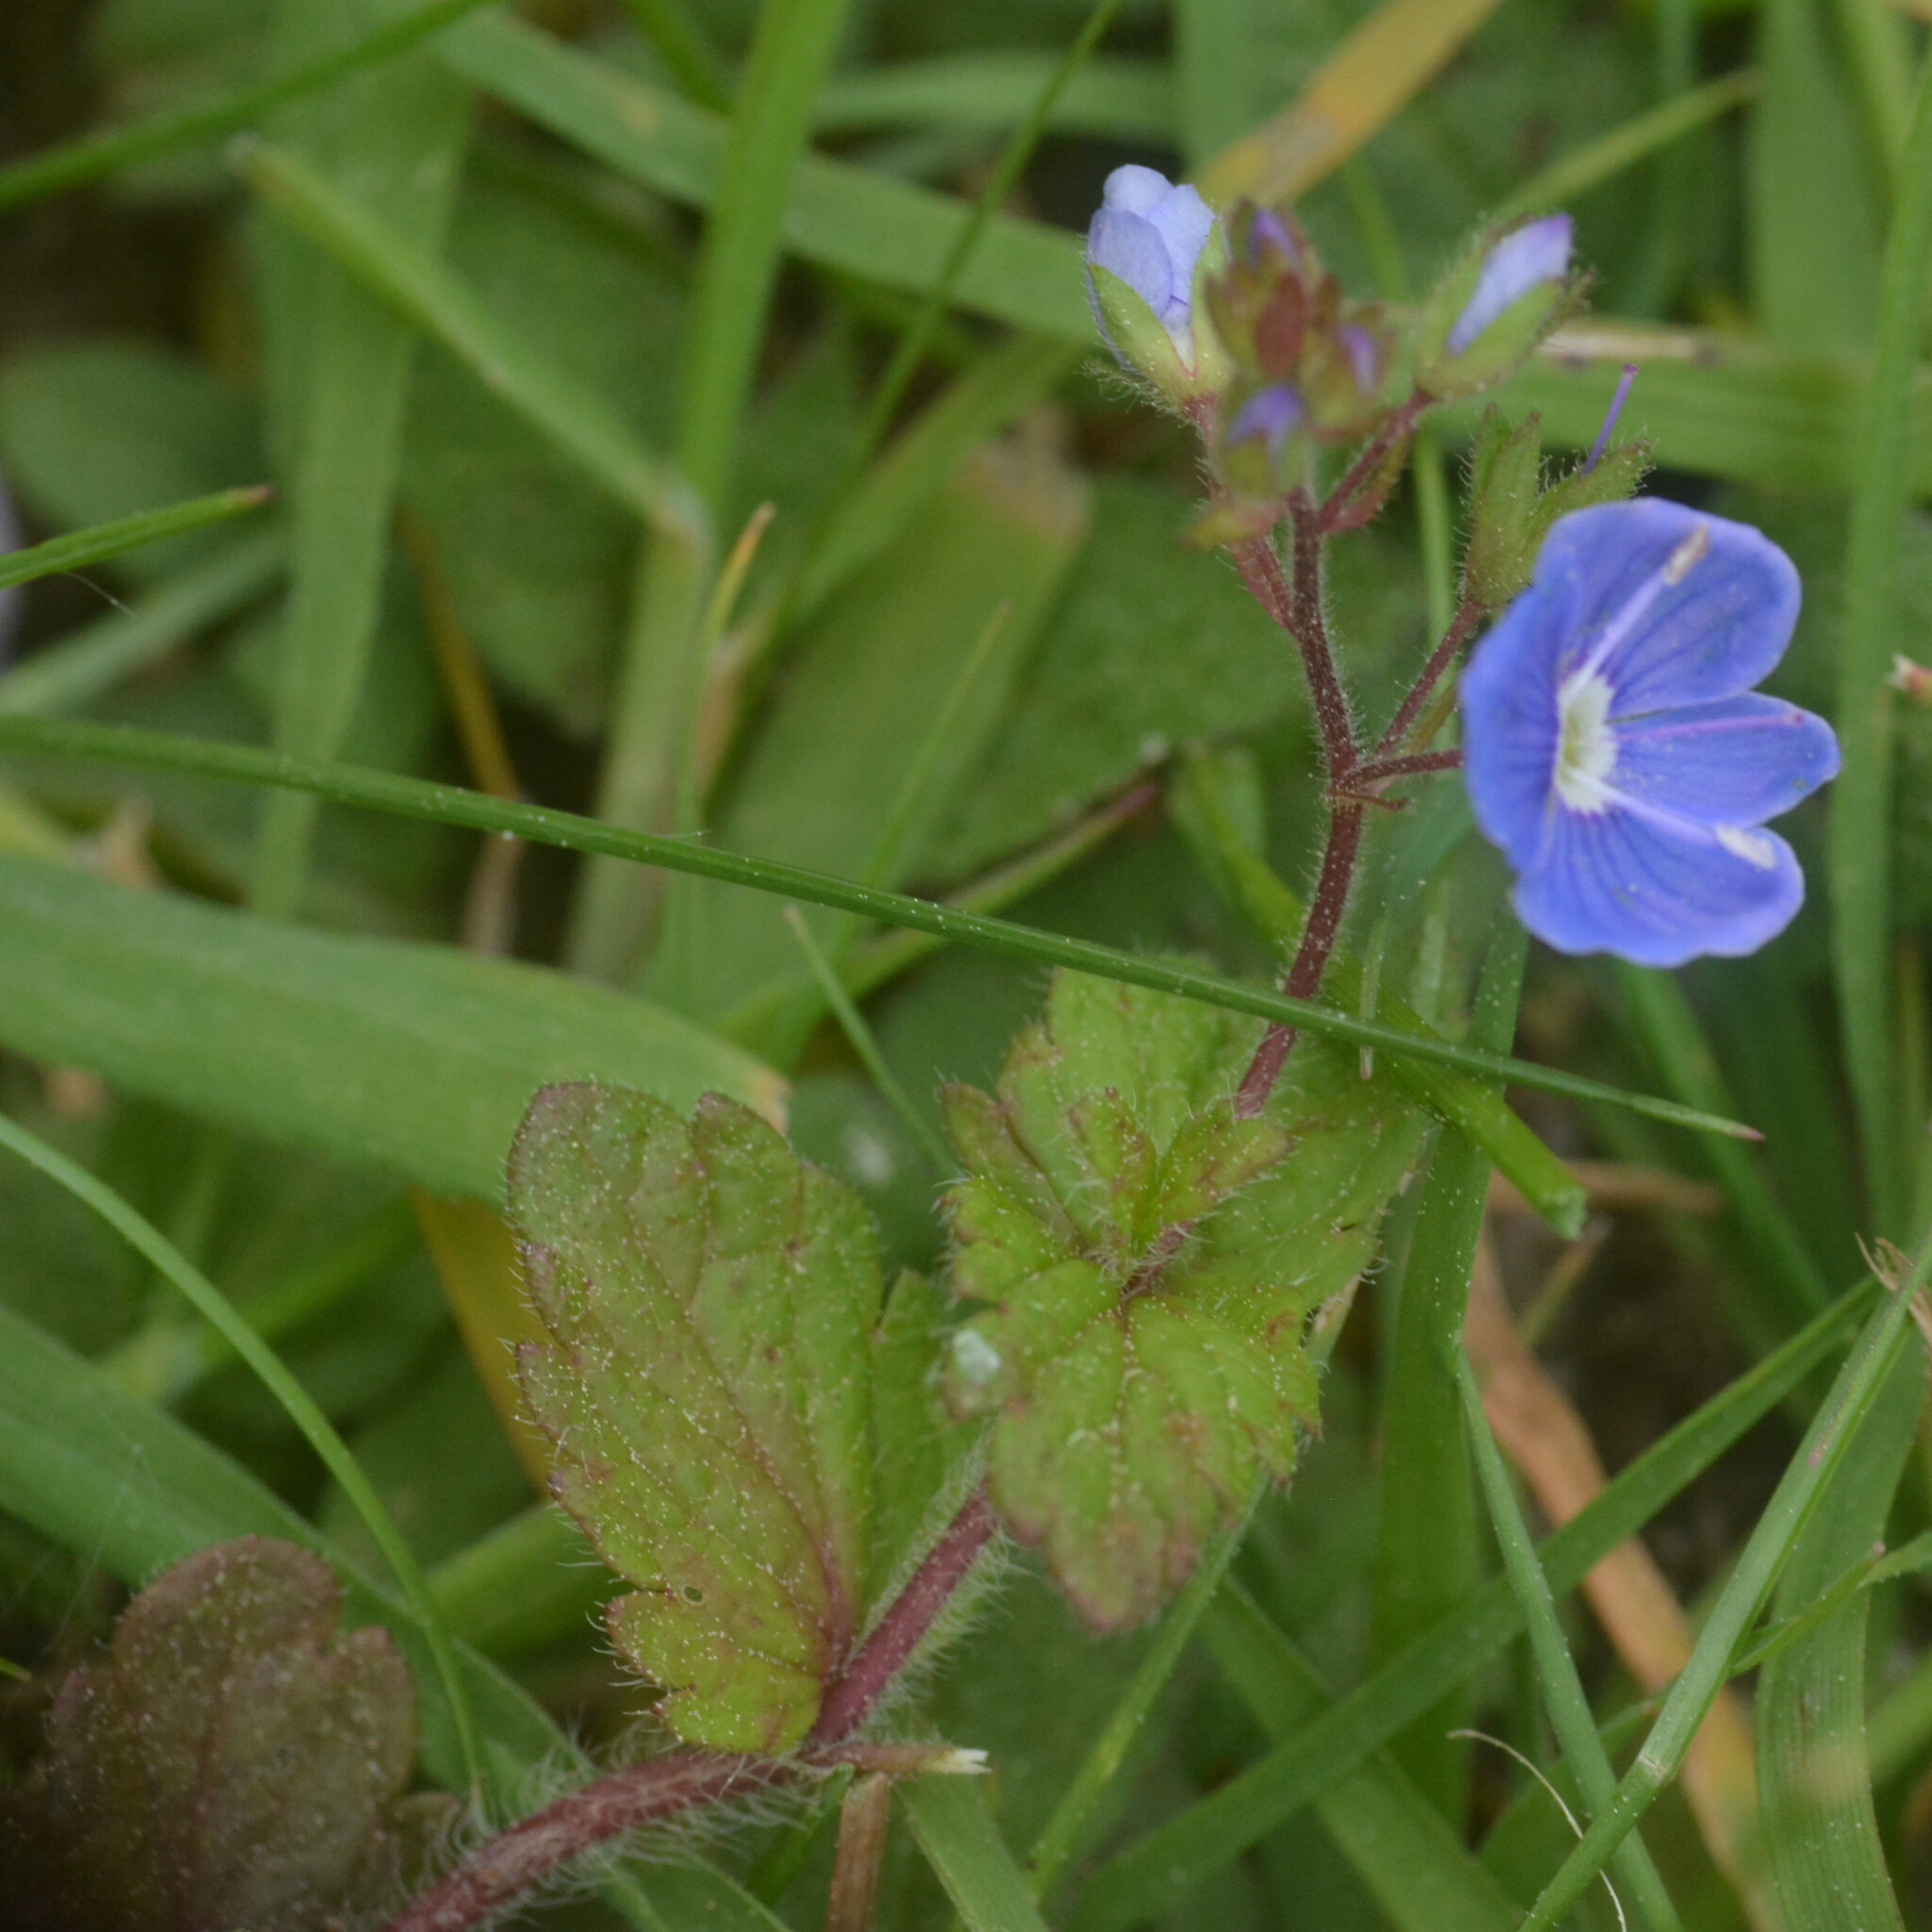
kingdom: Plantae
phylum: Tracheophyta
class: Magnoliopsida
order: Lamiales
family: Plantaginaceae
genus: Veronica
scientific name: Veronica chamaedrys
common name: Germander speedwell
